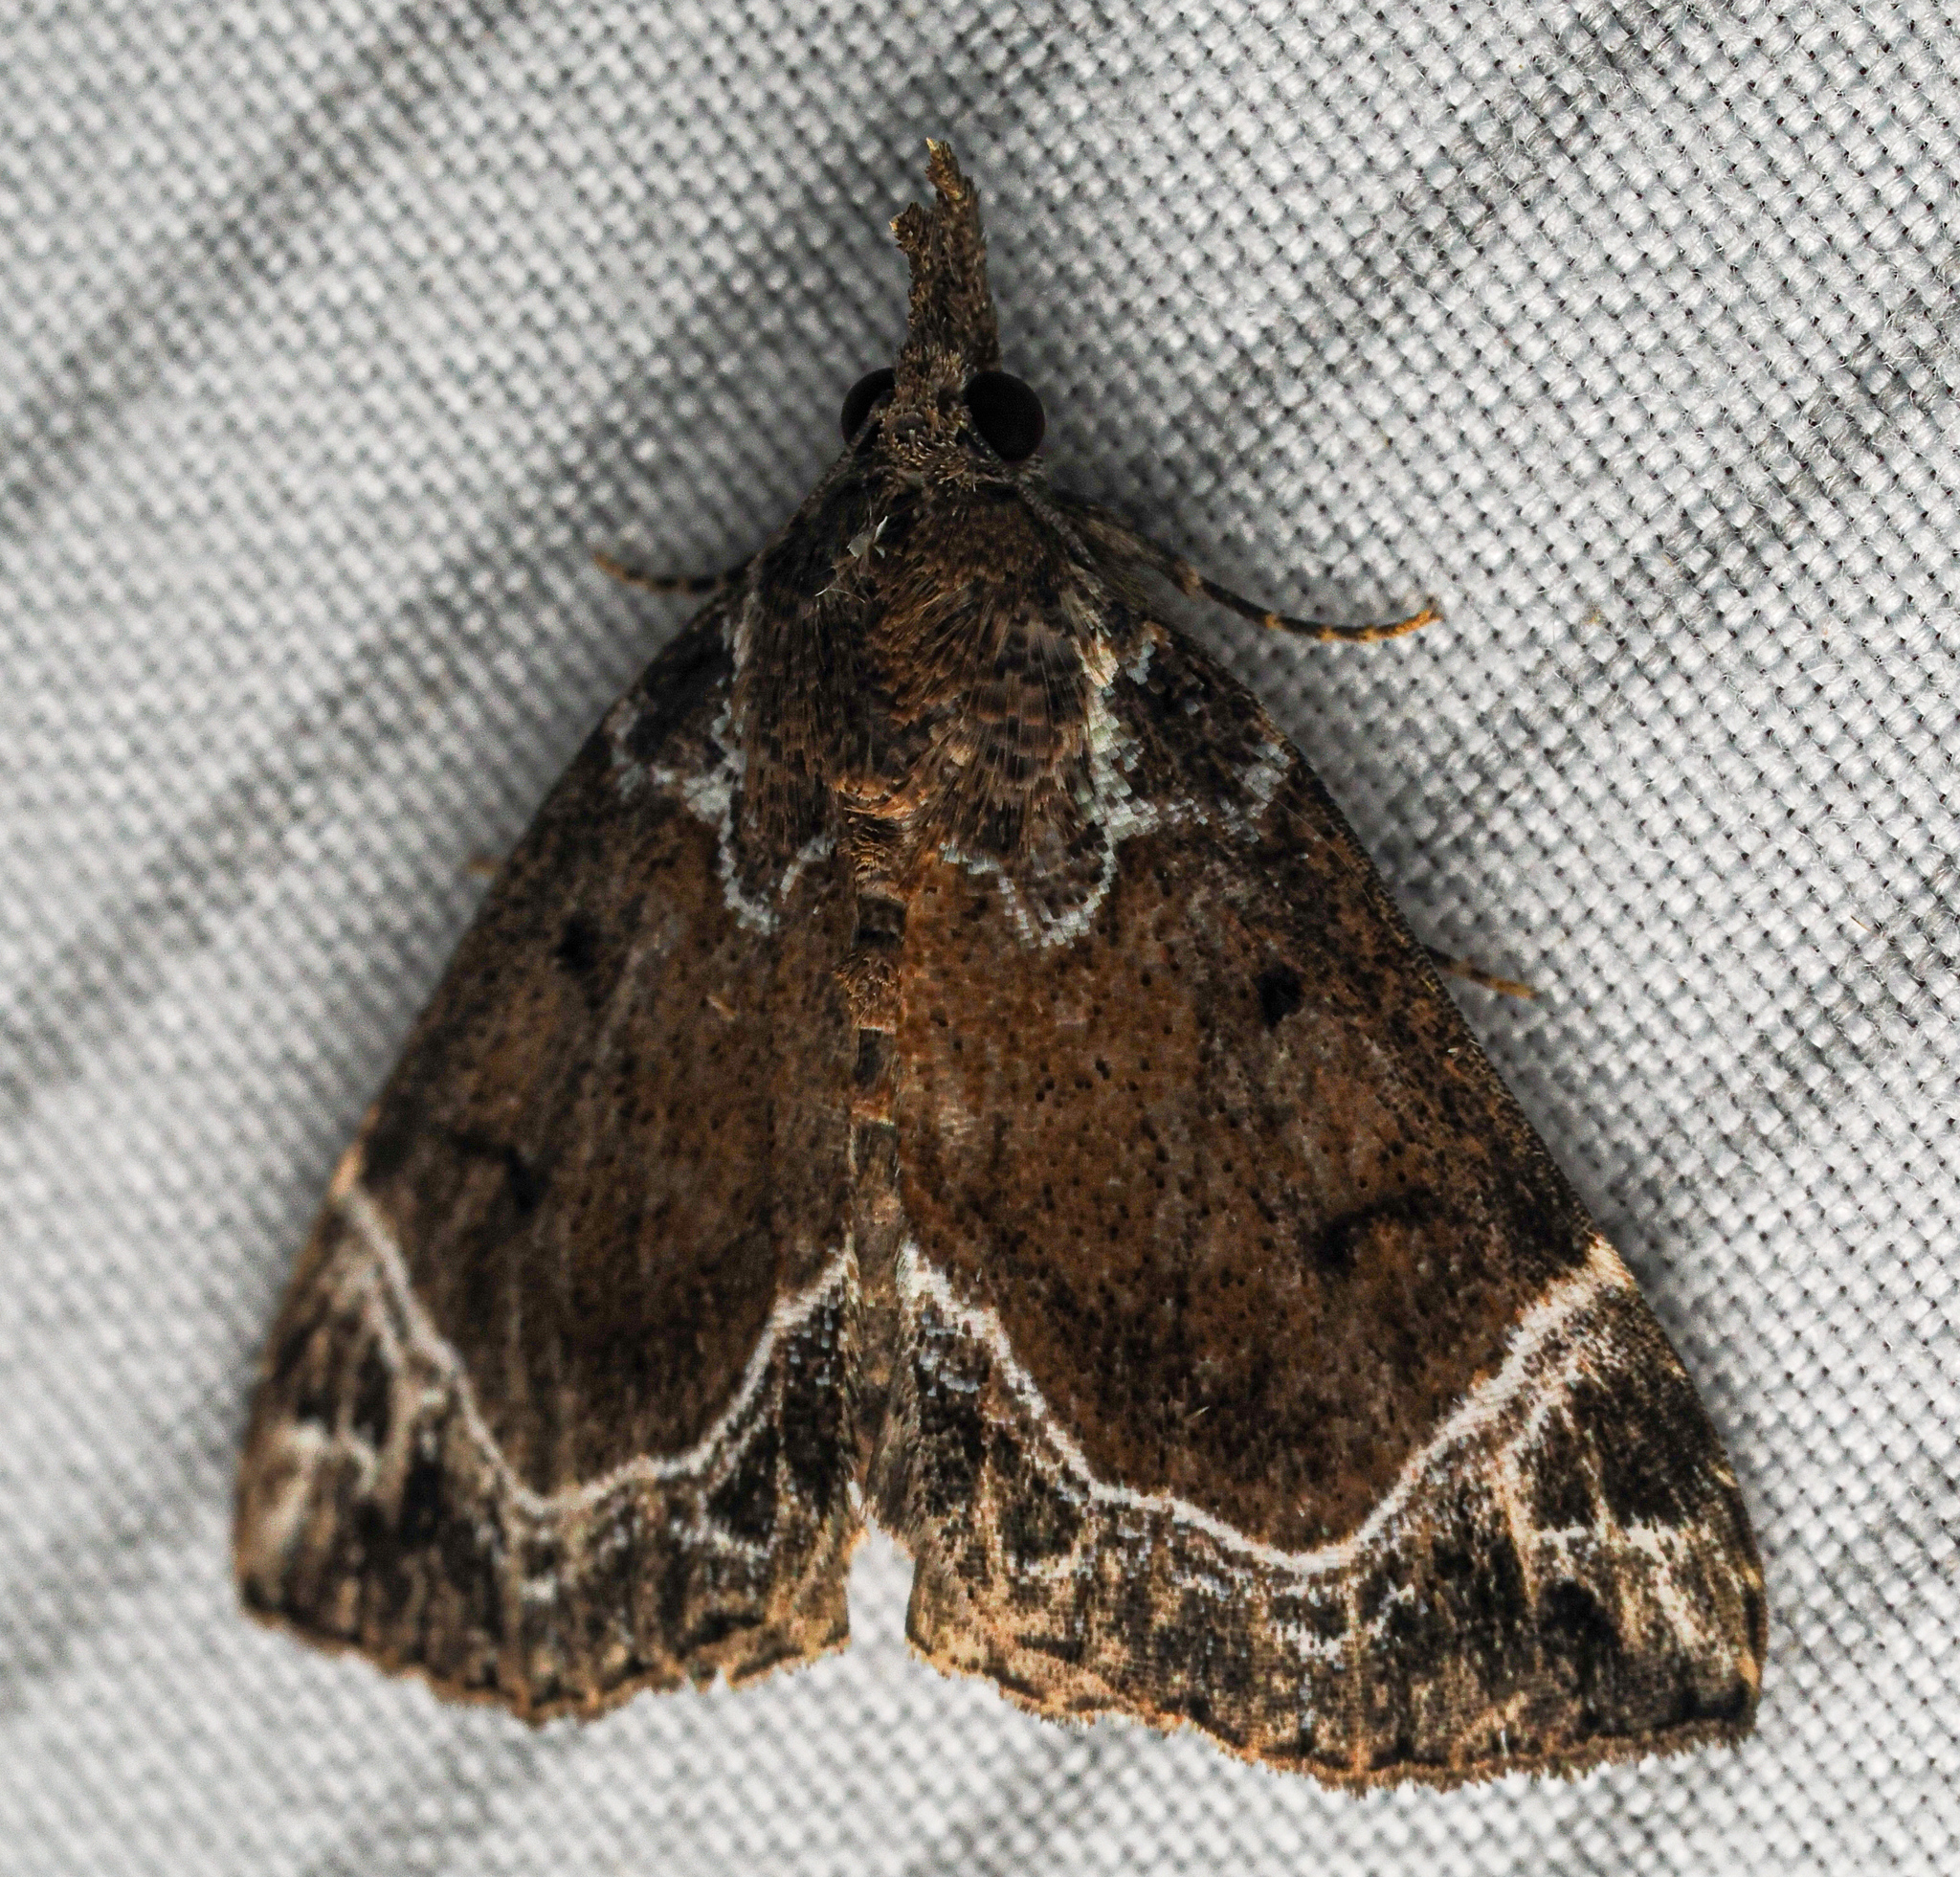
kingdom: Animalia
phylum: Arthropoda
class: Insecta
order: Lepidoptera
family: Erebidae
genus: Hypena
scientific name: Hypena abalienalis
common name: White-lined snout
